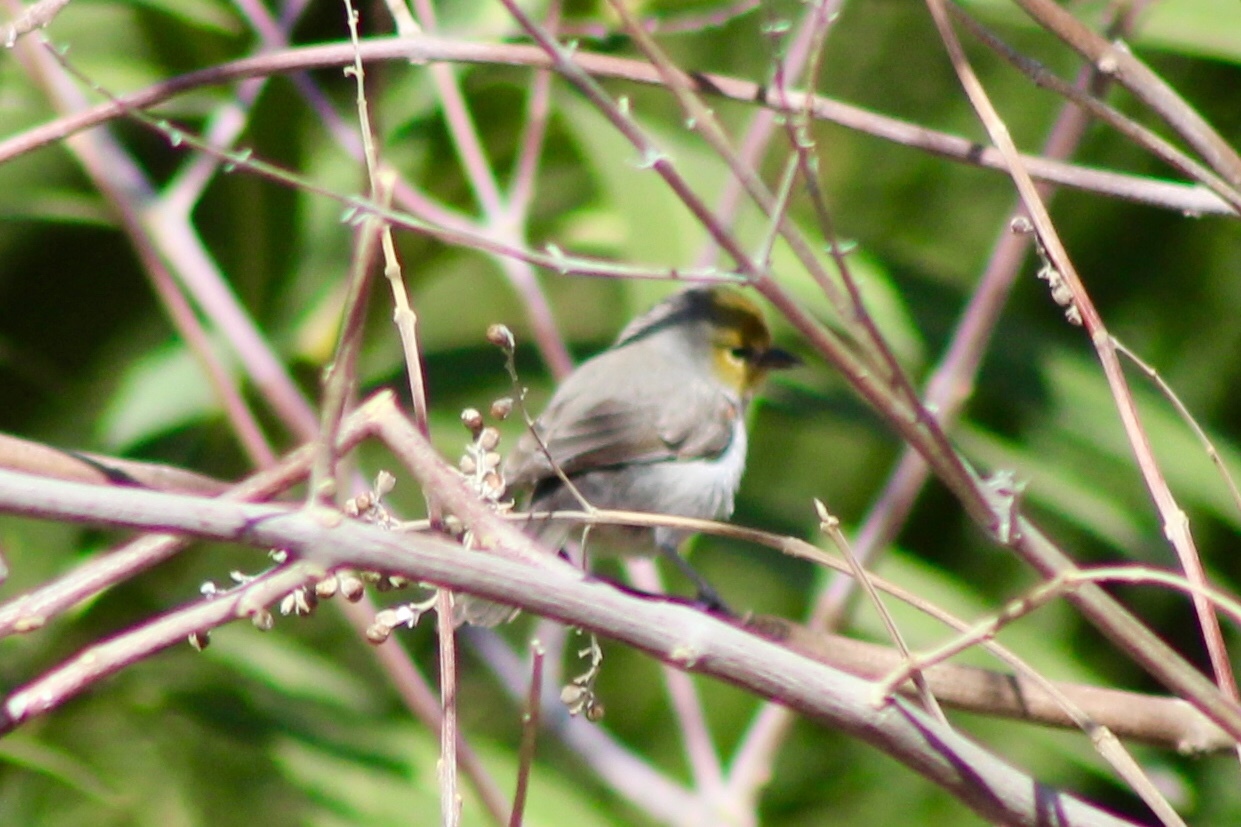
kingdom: Animalia
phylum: Chordata
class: Aves
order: Passeriformes
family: Remizidae
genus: Auriparus
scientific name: Auriparus flaviceps
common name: Verdin
